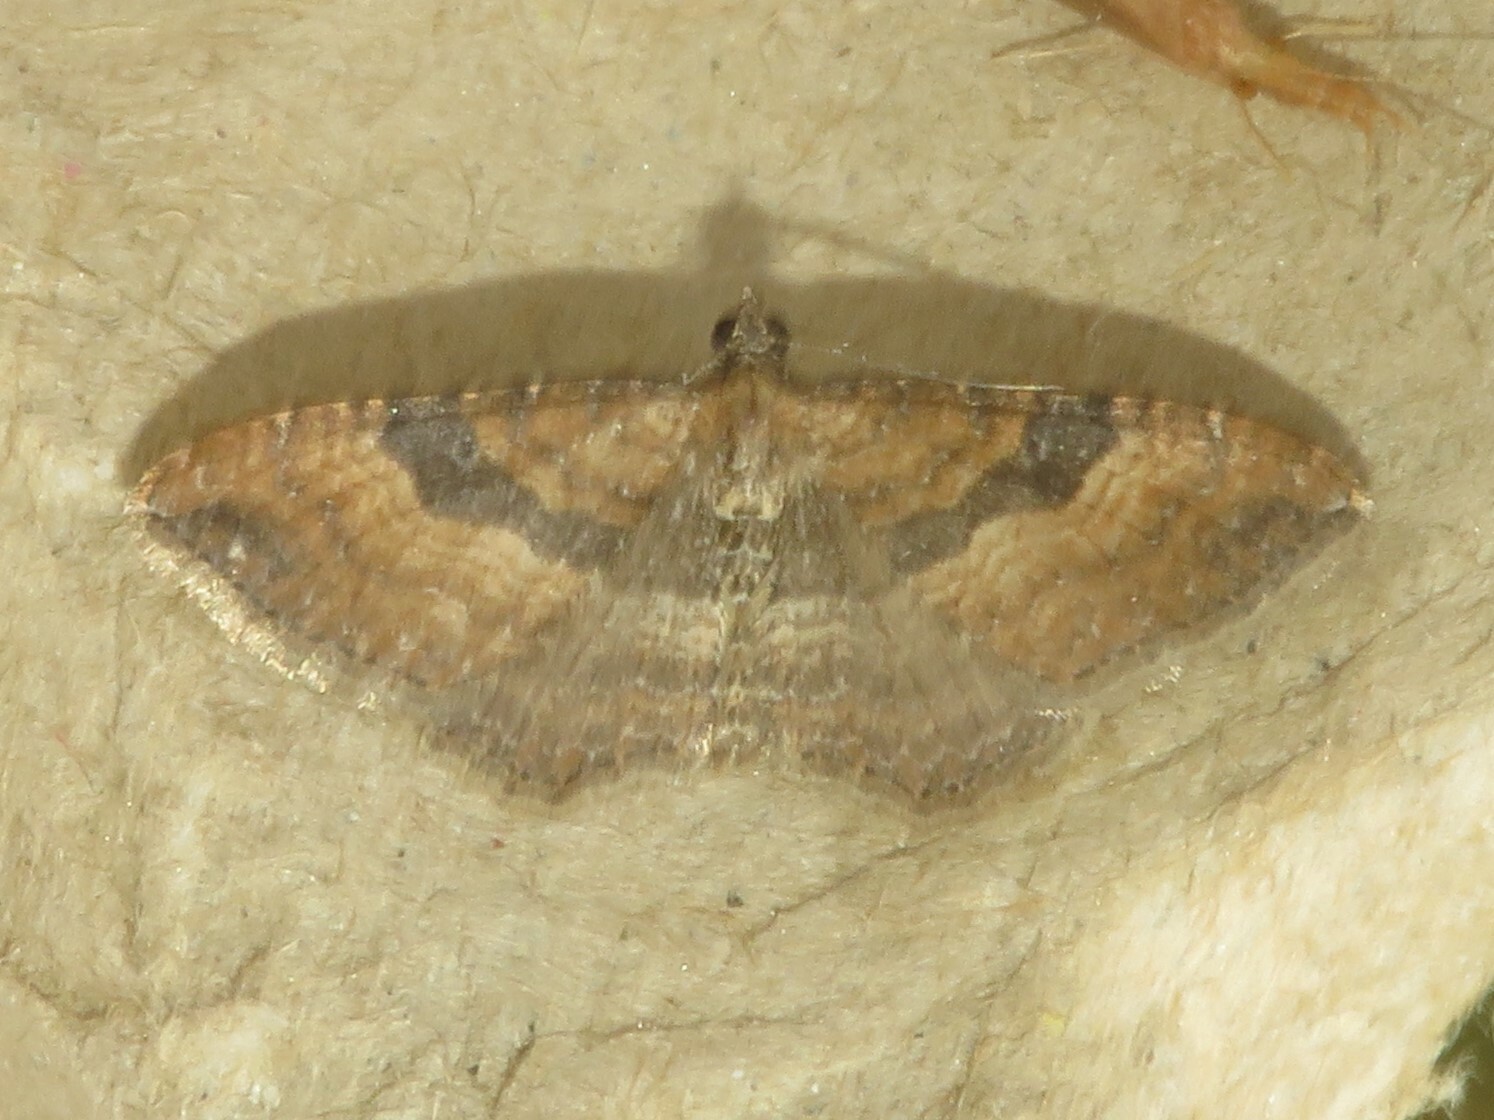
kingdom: Animalia
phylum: Arthropoda
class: Insecta
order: Lepidoptera
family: Geometridae
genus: Orthonama
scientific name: Orthonama obstipata
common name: The gem
